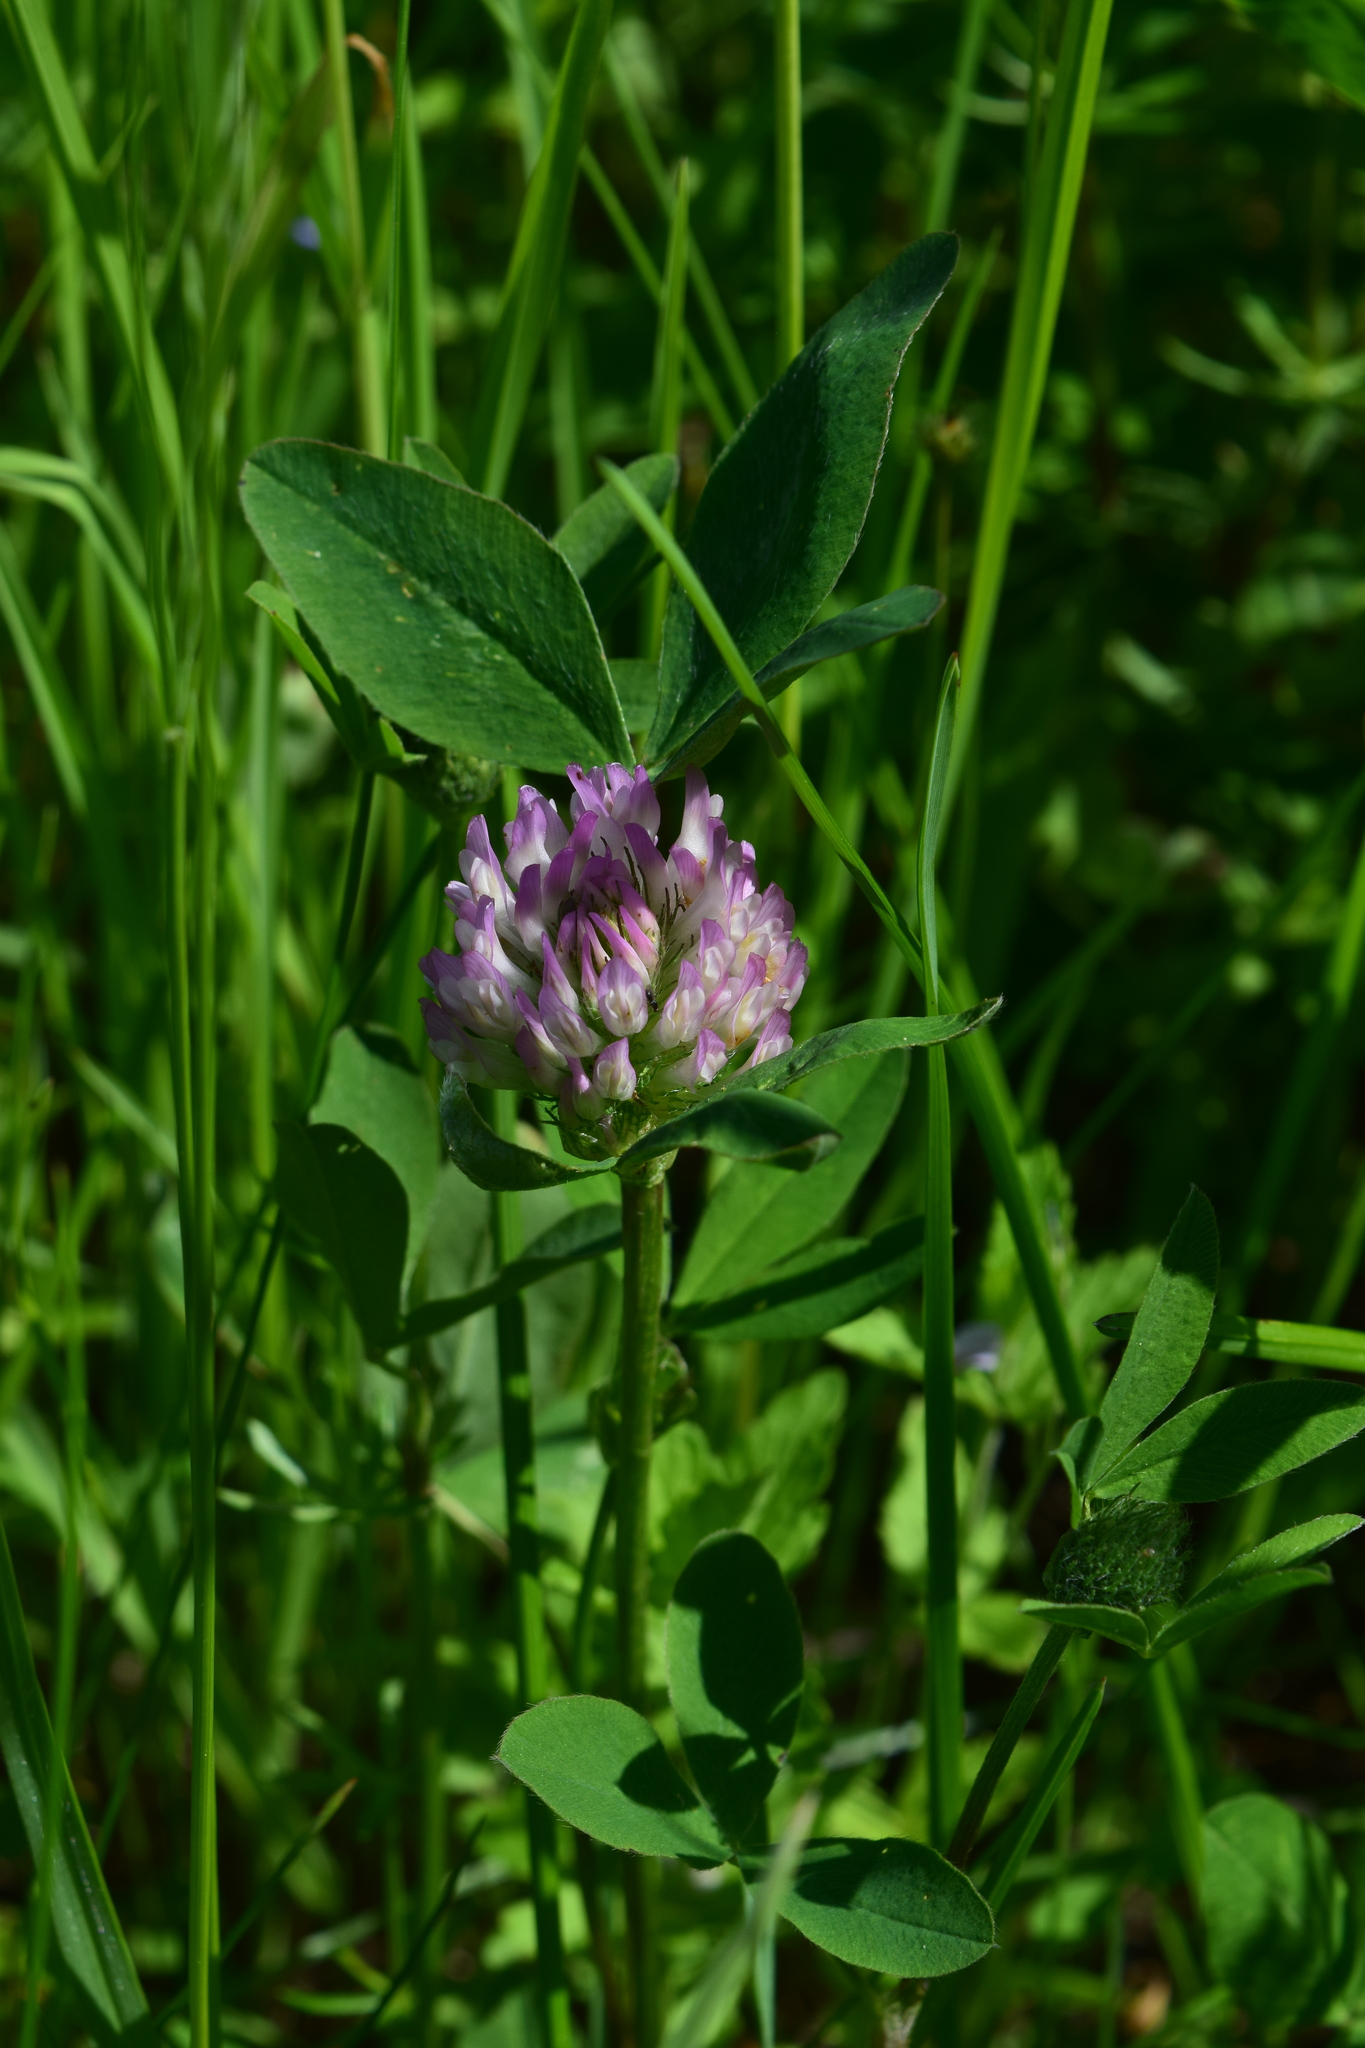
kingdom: Plantae
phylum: Tracheophyta
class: Magnoliopsida
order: Fabales
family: Fabaceae
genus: Trifolium
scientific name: Trifolium pratense
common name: Red clover
